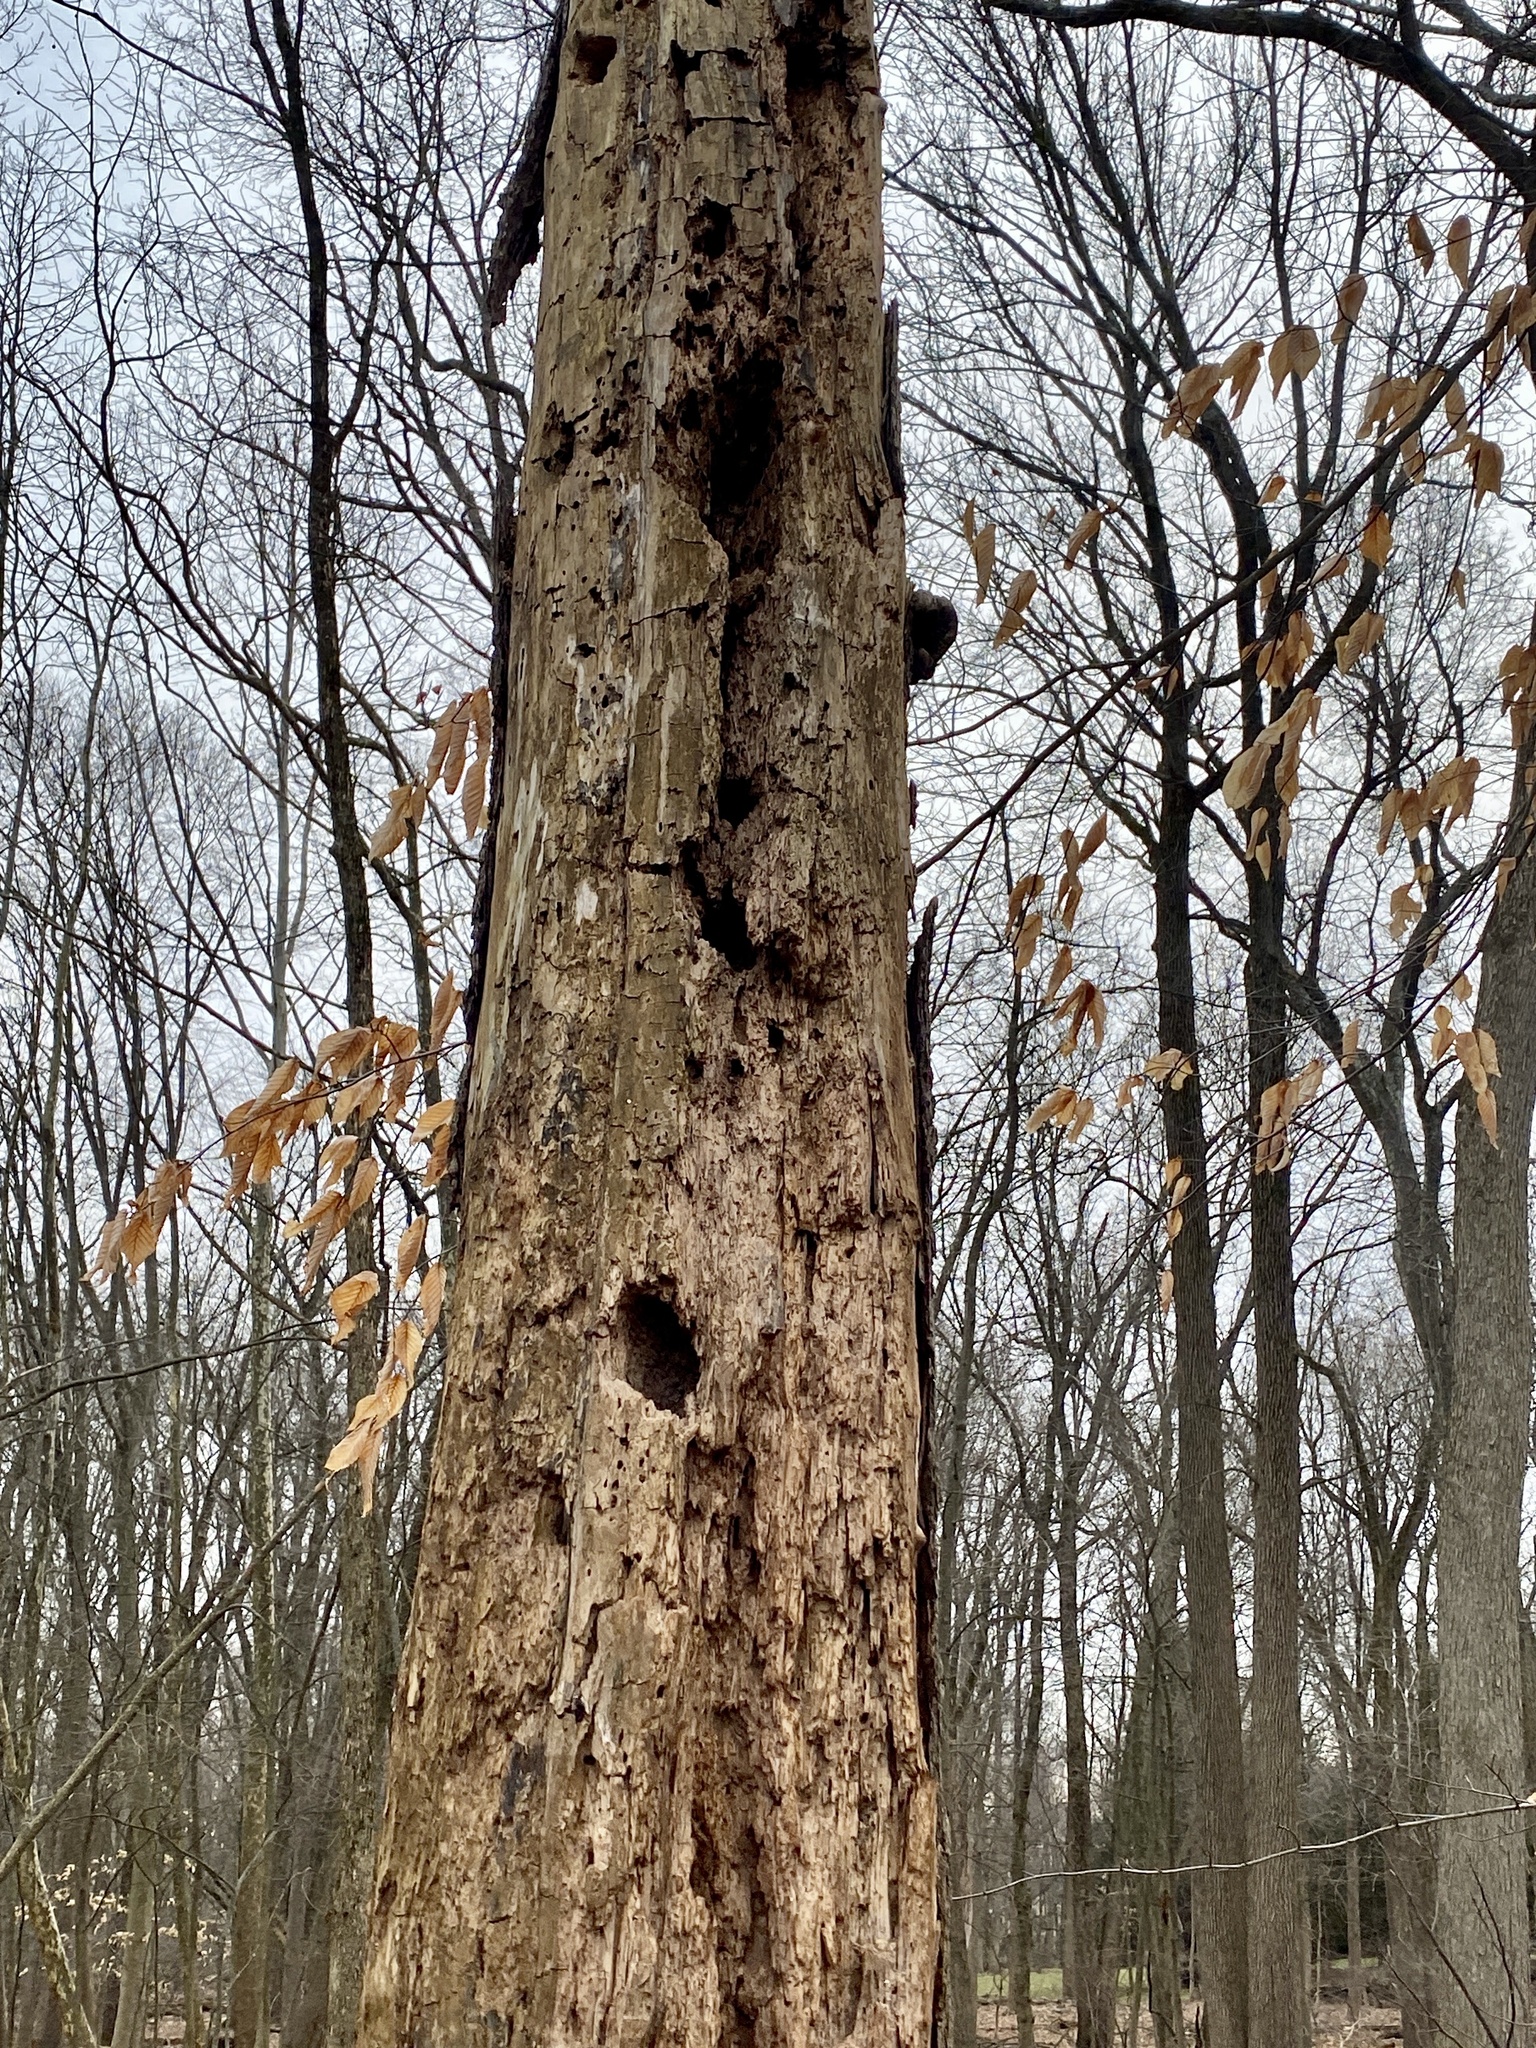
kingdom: Animalia
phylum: Chordata
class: Aves
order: Piciformes
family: Picidae
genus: Dryocopus
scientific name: Dryocopus pileatus
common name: Pileated woodpecker
